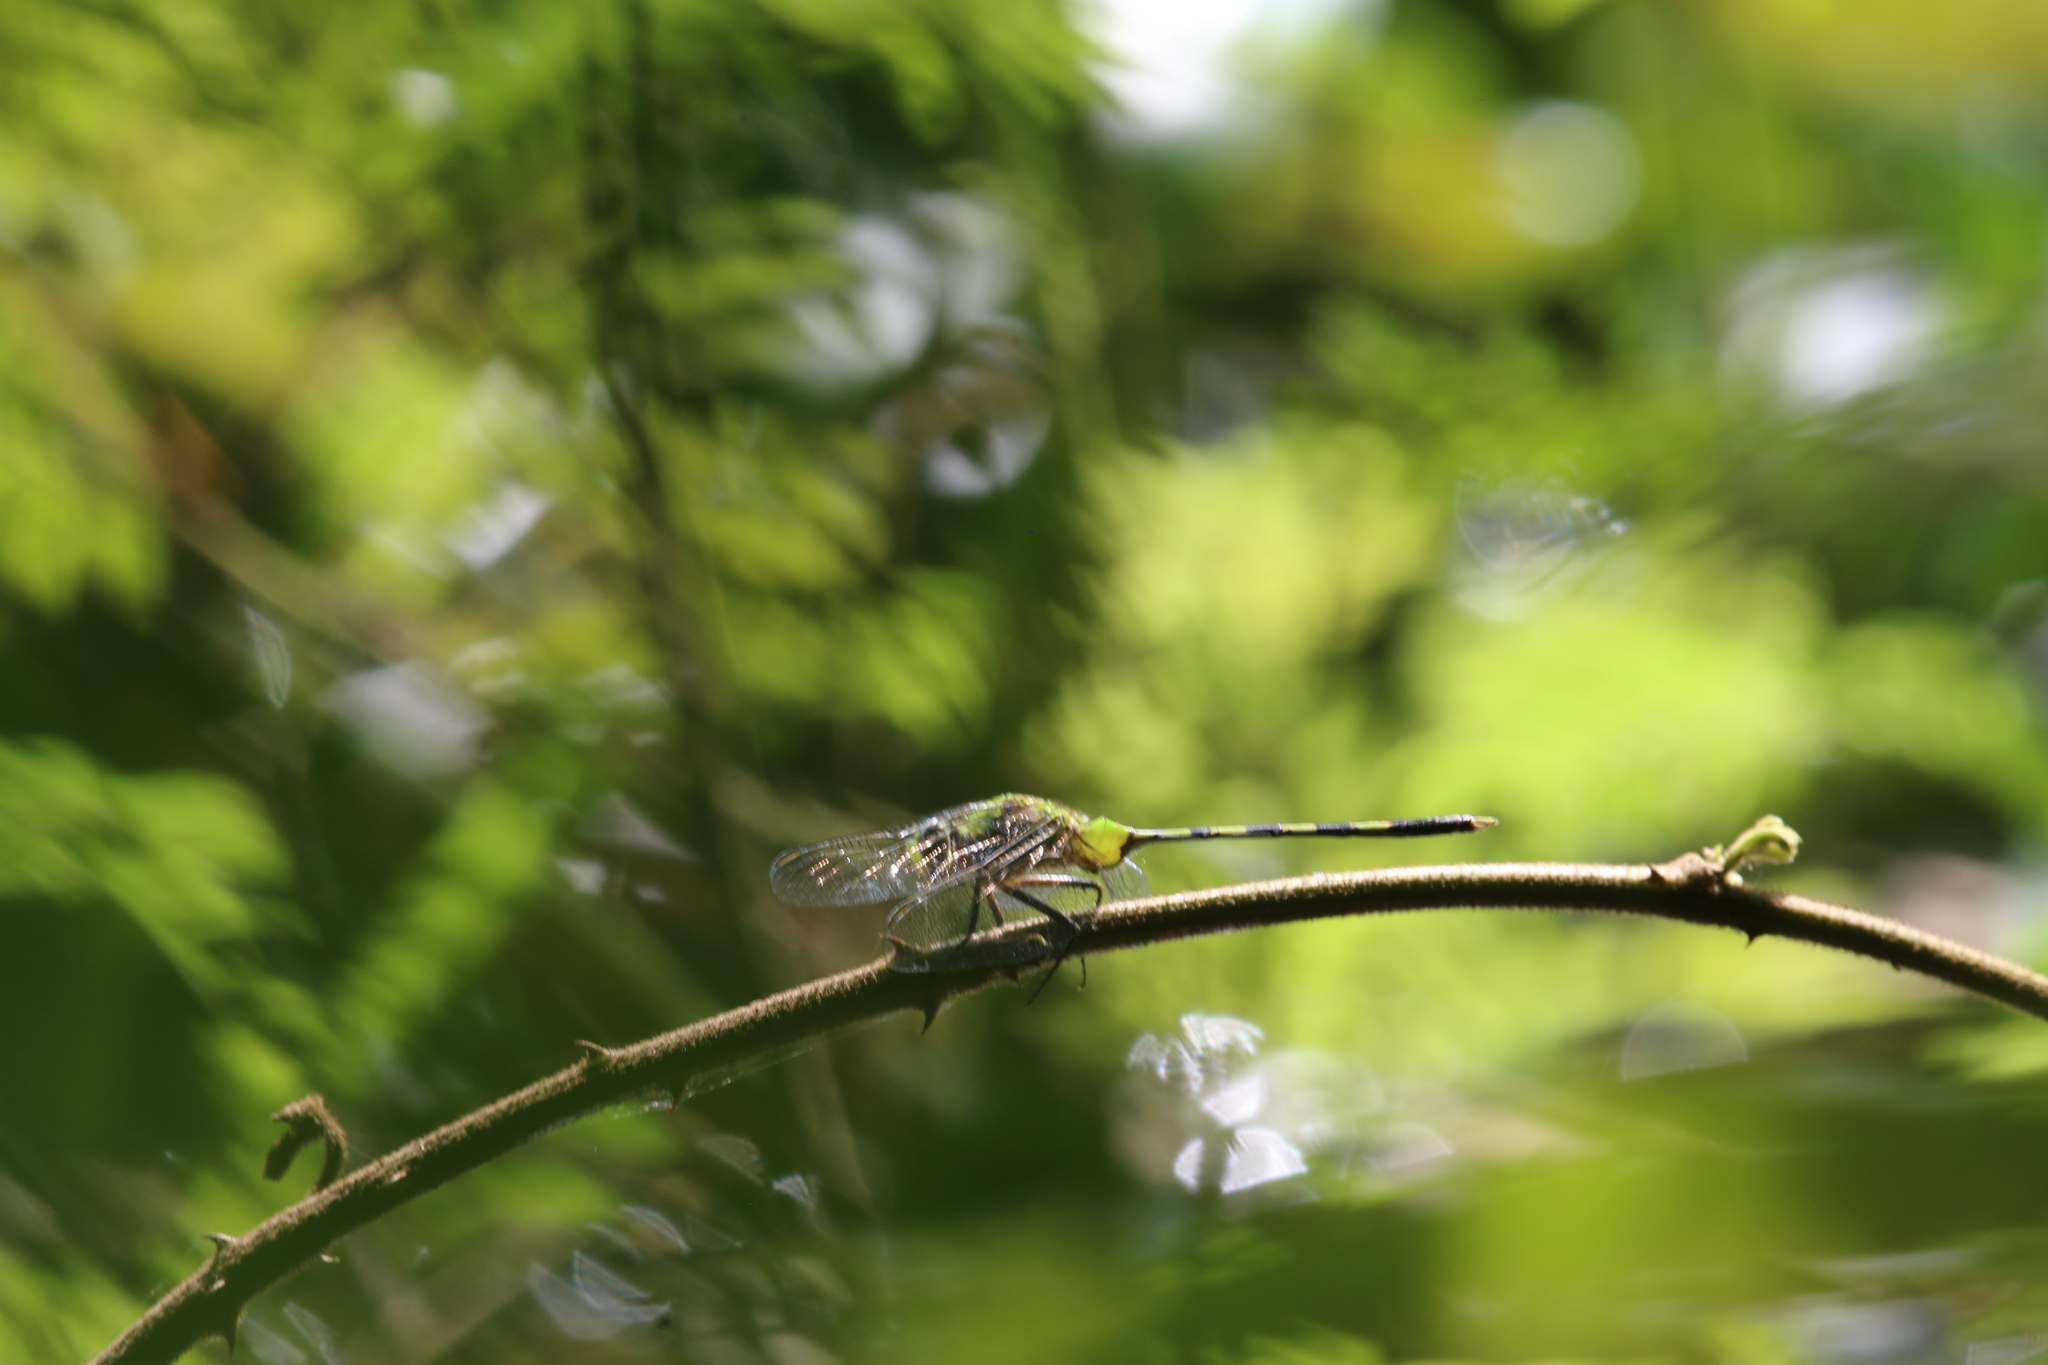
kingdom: Animalia
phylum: Arthropoda
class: Insecta
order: Odonata
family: Libellulidae
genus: Erythemis
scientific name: Erythemis vesiculosa
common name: Great pondhawk
